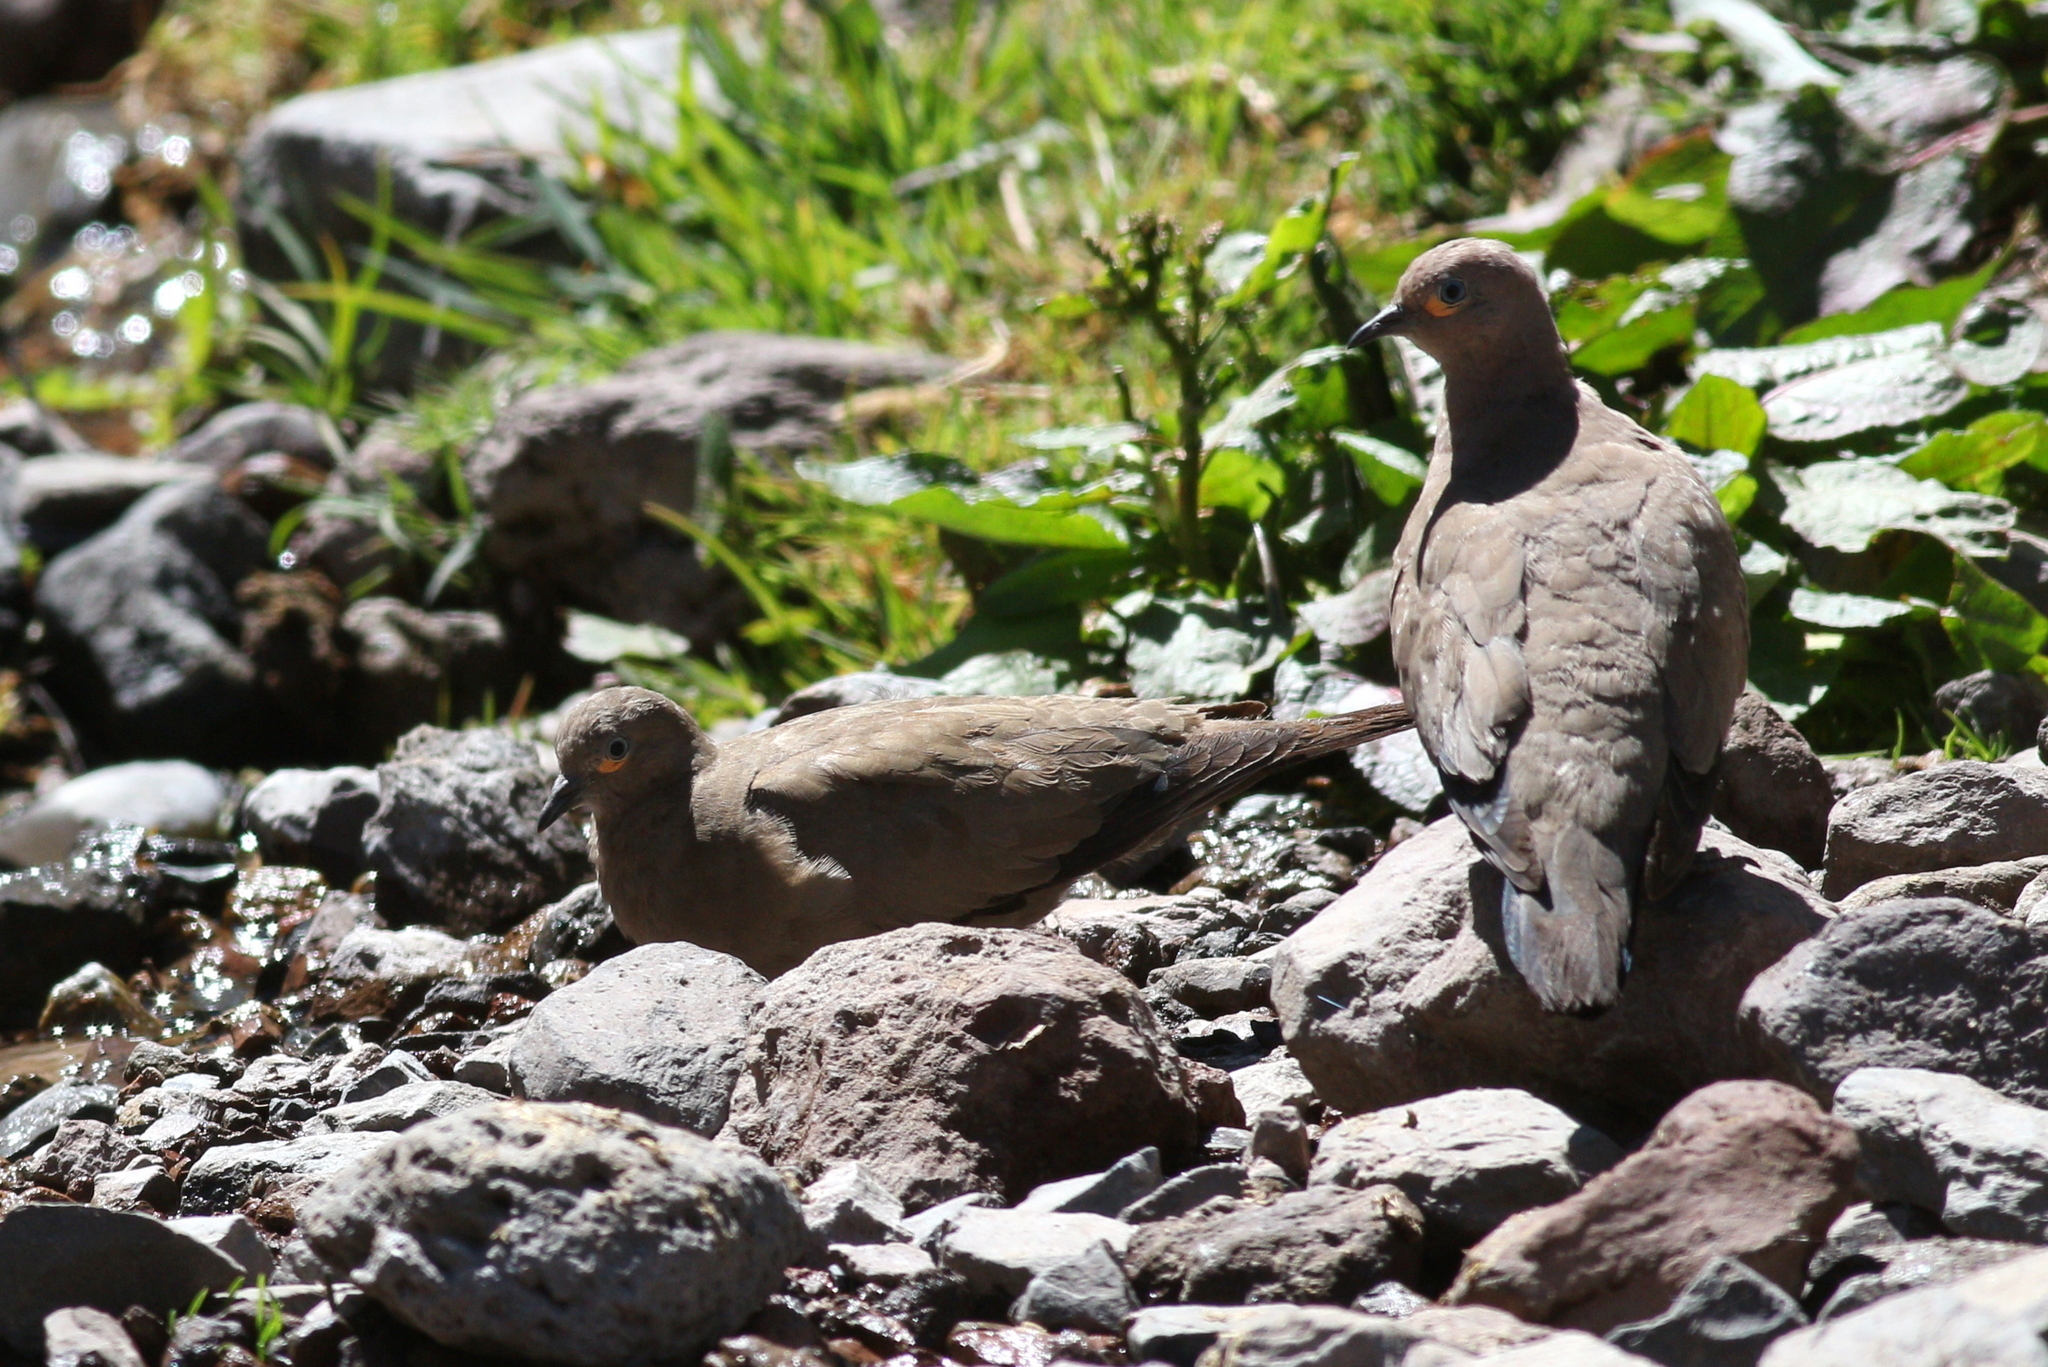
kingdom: Animalia
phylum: Chordata
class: Aves
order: Columbiformes
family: Columbidae
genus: Metriopelia
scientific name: Metriopelia melanoptera
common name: Black-winged ground dove
